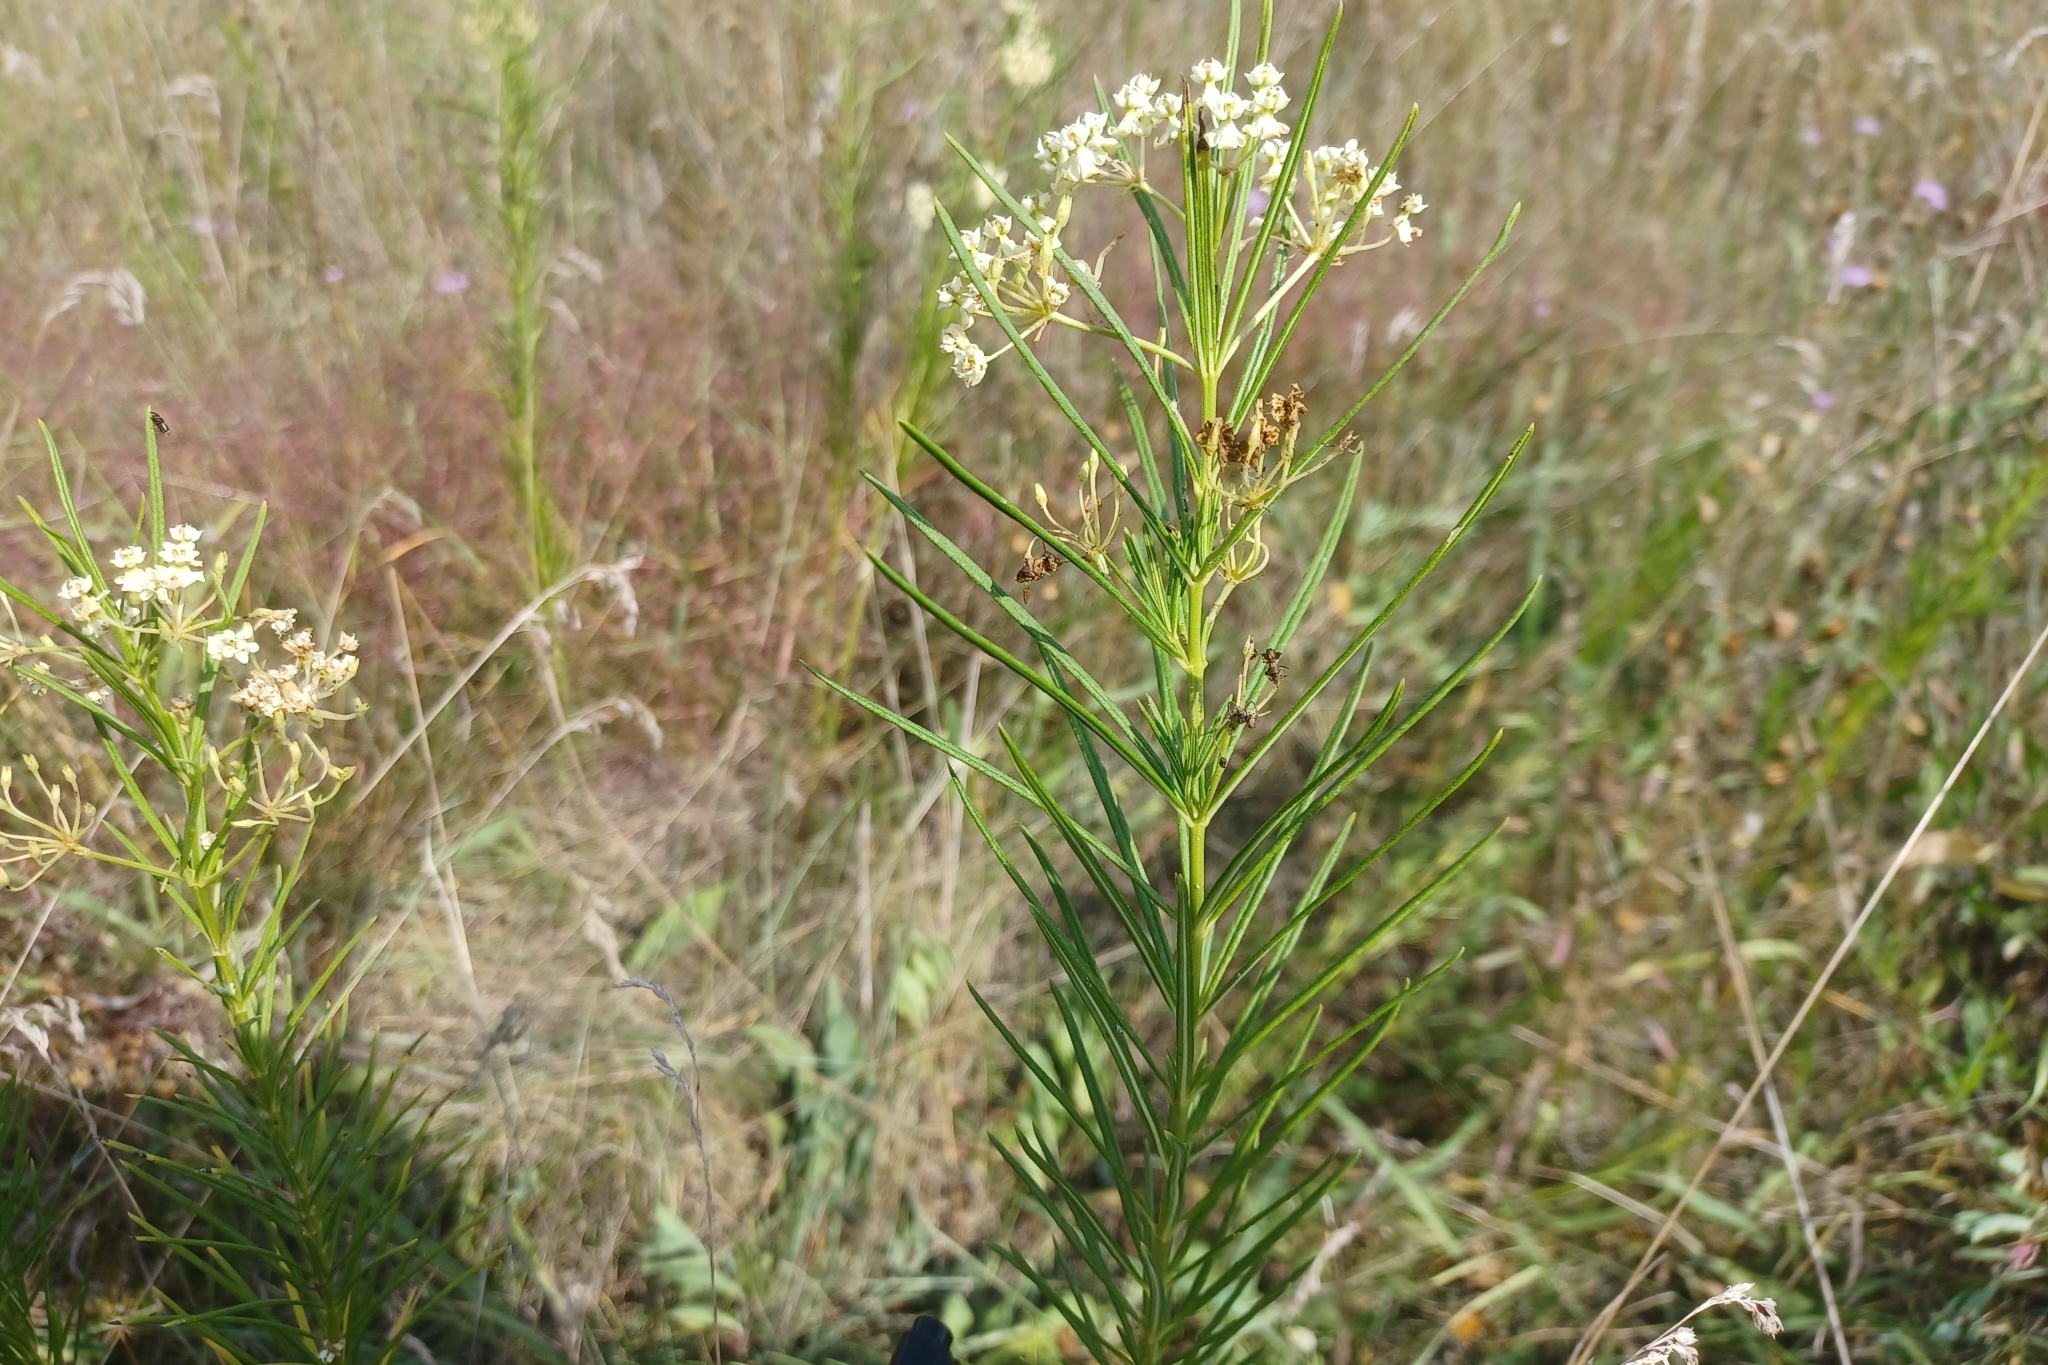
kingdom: Plantae
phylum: Tracheophyta
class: Magnoliopsida
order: Gentianales
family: Apocynaceae
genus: Asclepias
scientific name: Asclepias verticillata
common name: Eastern whorled milkweed
